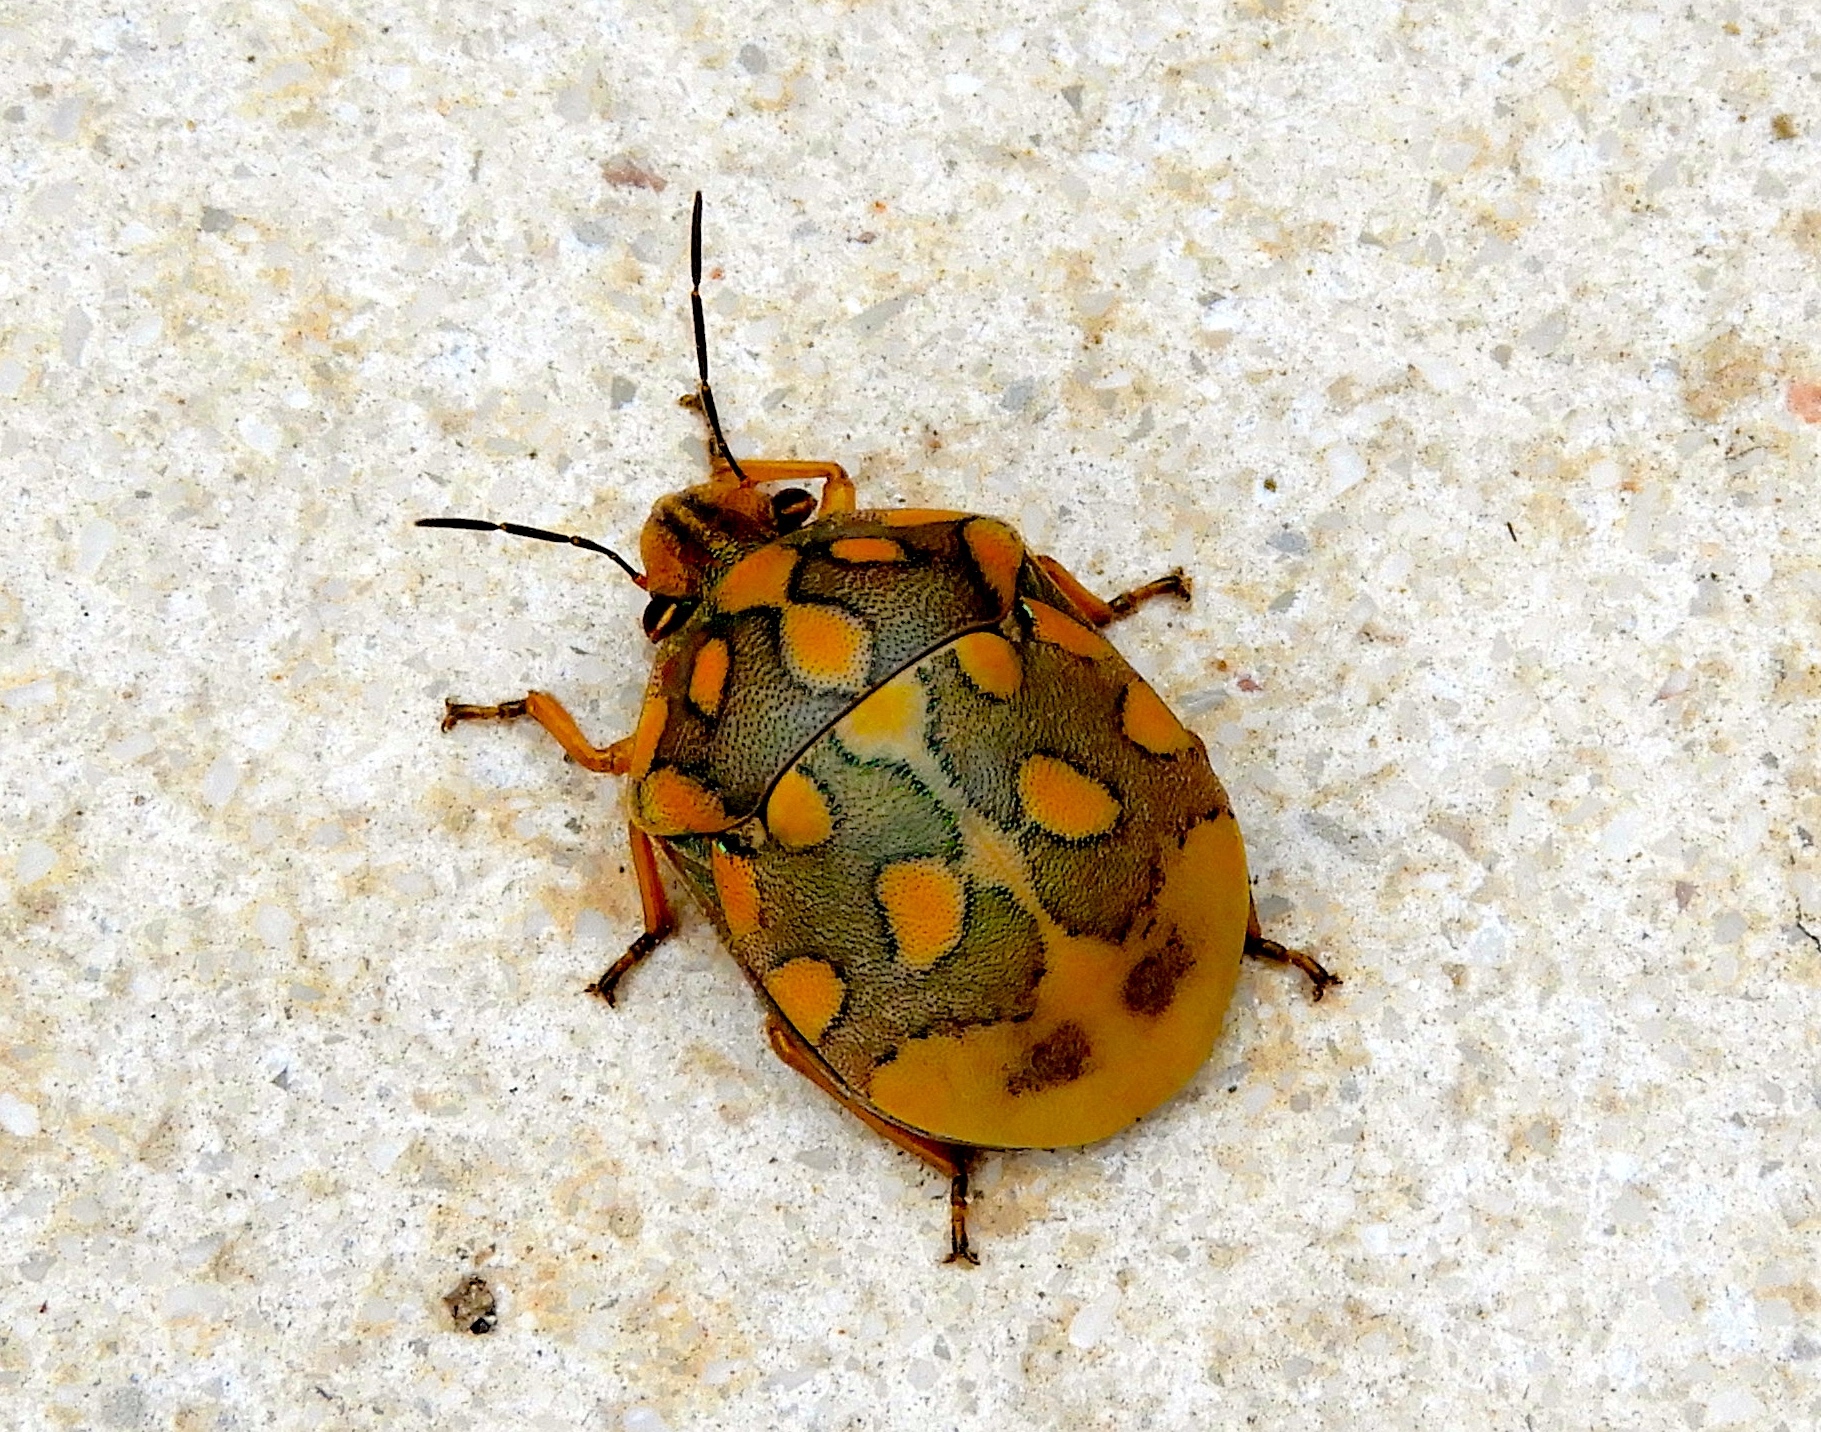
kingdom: Animalia
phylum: Arthropoda
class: Insecta
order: Hemiptera
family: Scutelleridae
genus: Pachycoris
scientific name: Pachycoris torridus
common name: Torrid jewel bug
